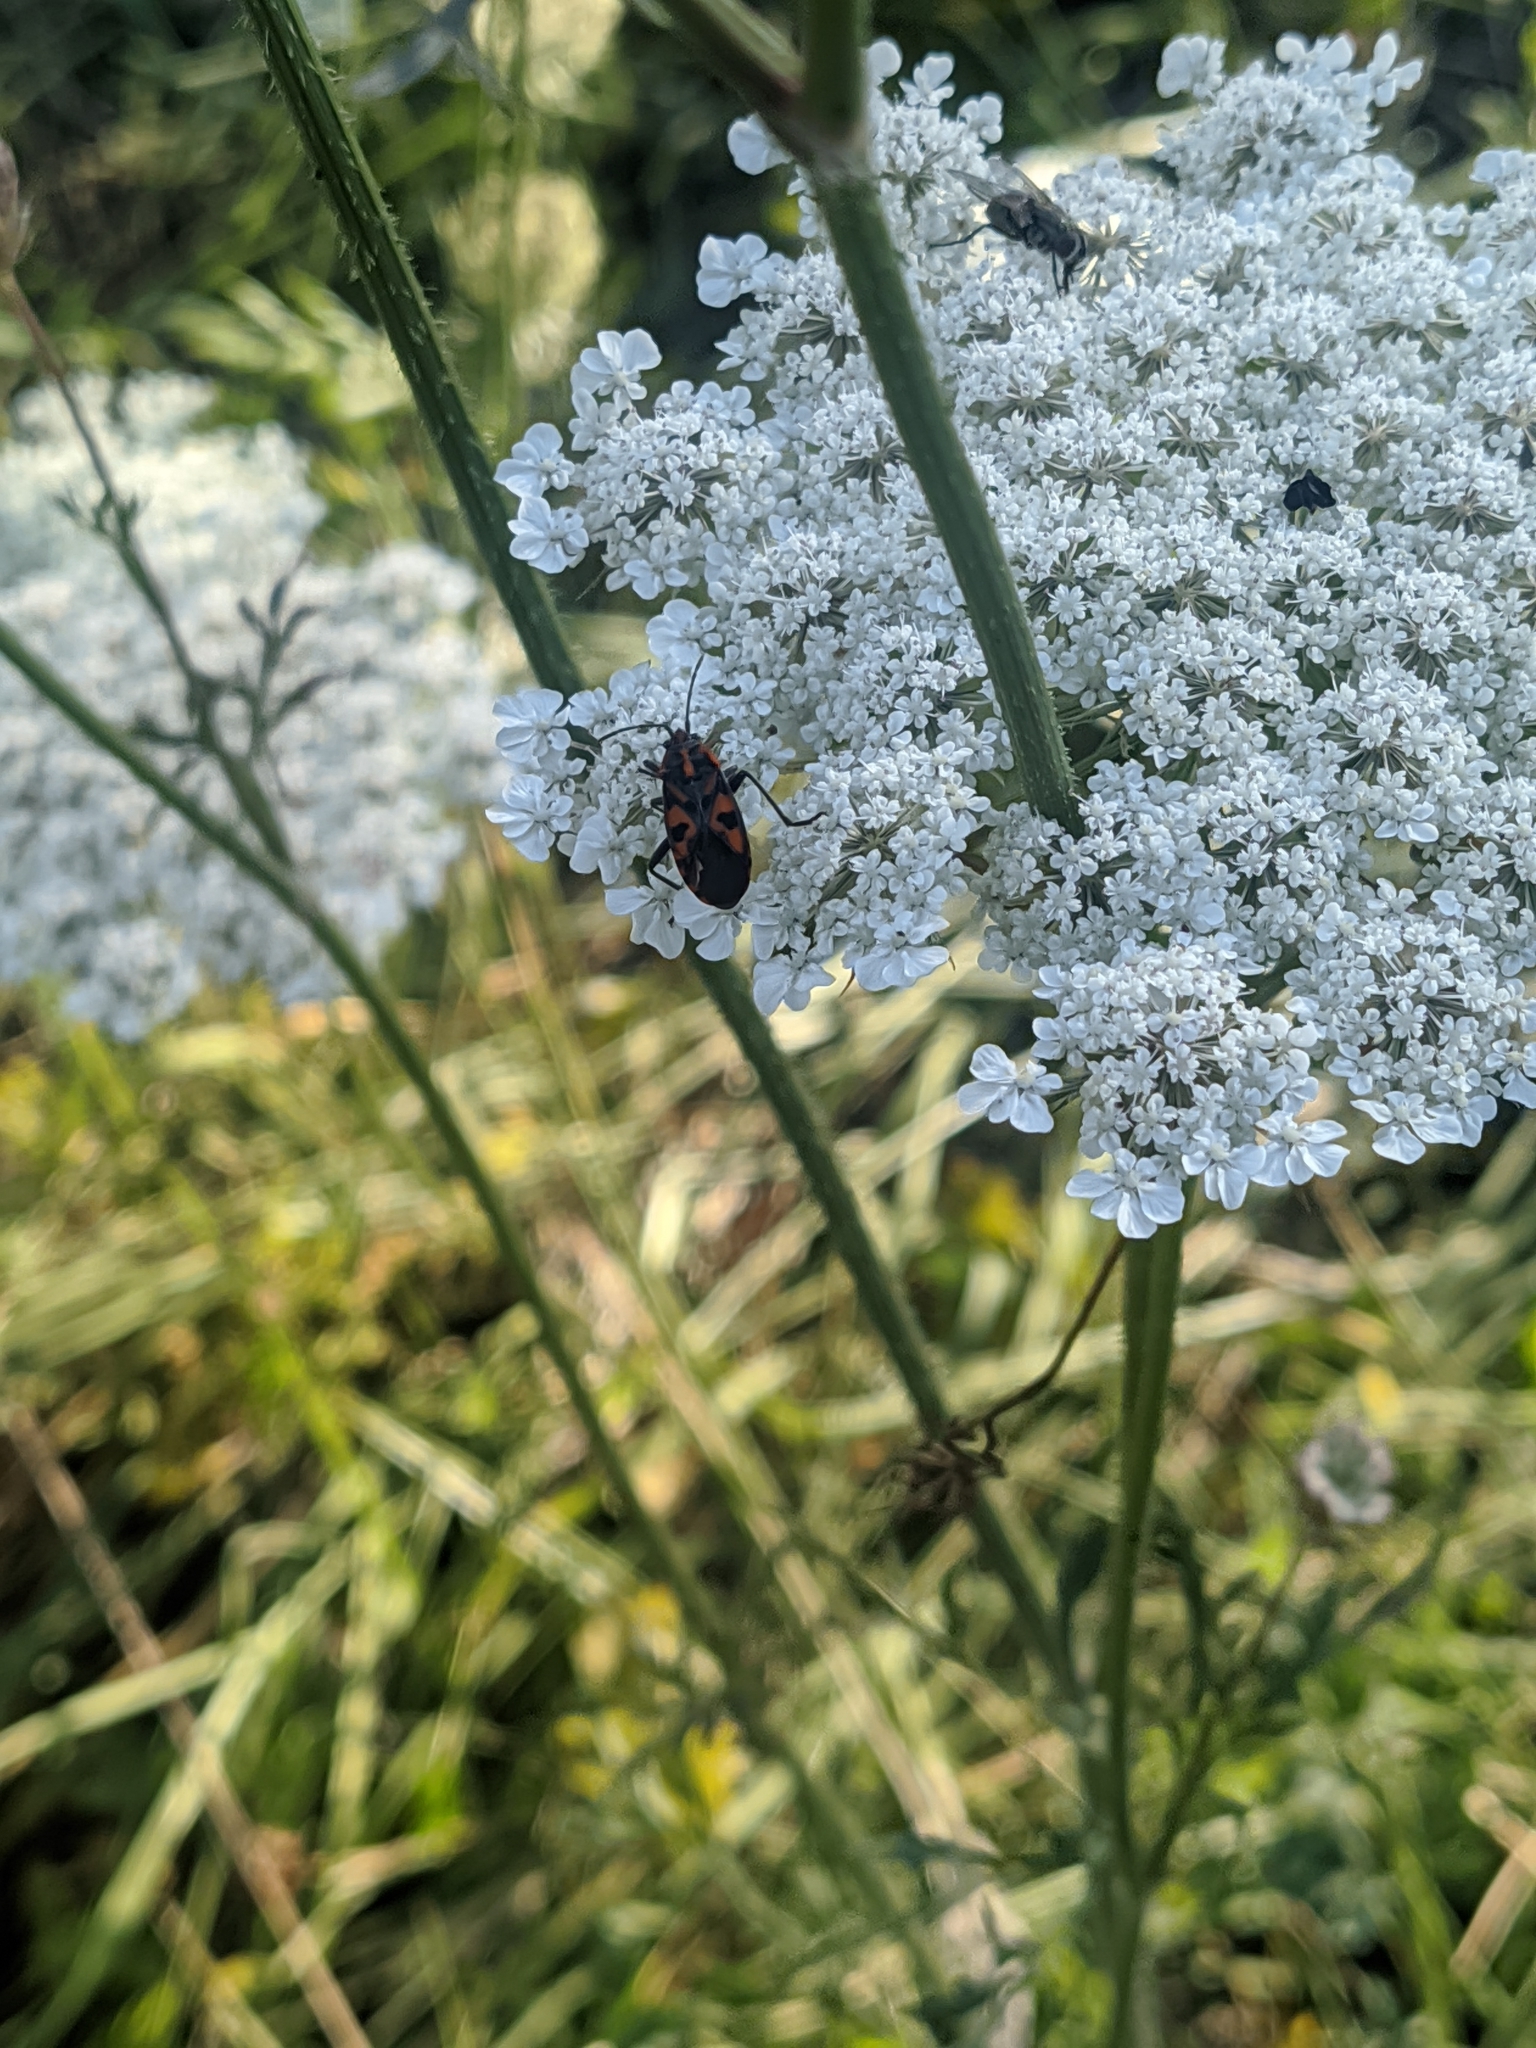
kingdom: Animalia
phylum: Arthropoda
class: Insecta
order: Hemiptera
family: Lygaeidae
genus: Spilostethus
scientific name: Spilostethus saxatilis
